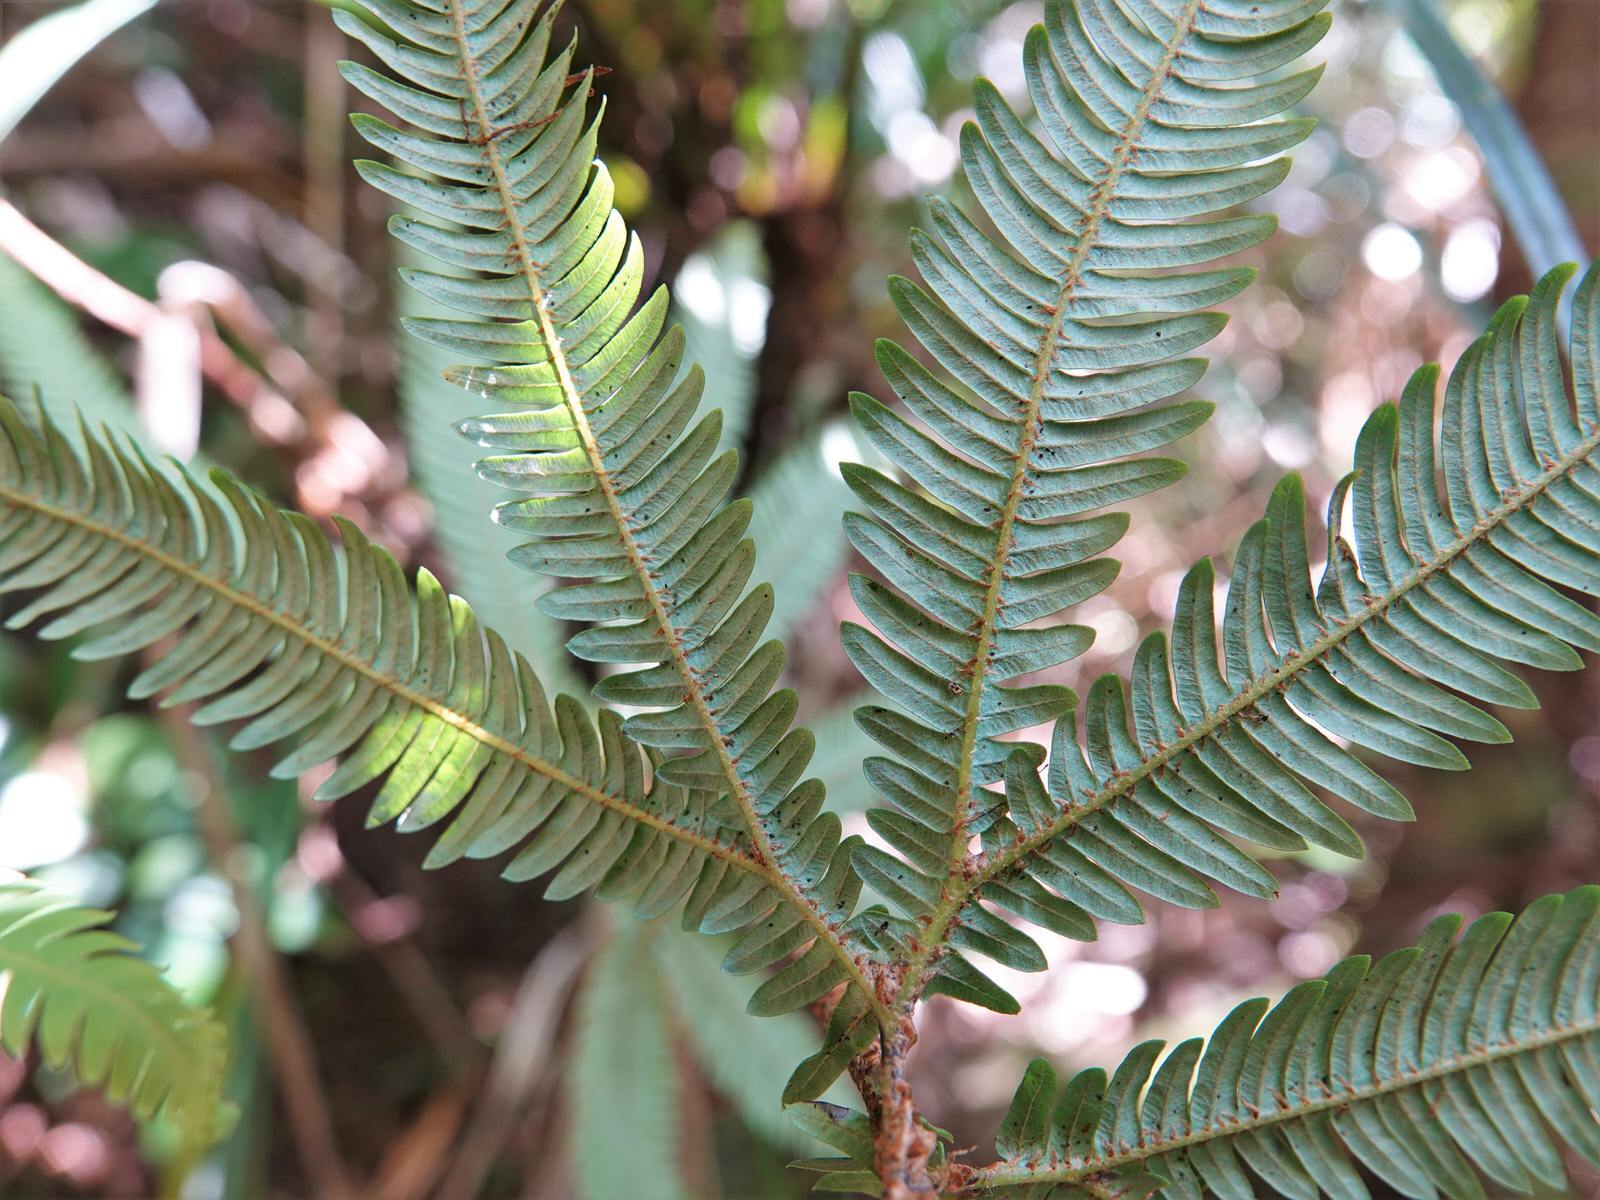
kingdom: Plantae
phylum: Tracheophyta
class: Polypodiopsida
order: Gleicheniales
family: Gleicheniaceae
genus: Sticherus
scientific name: Sticherus cunninghamii
